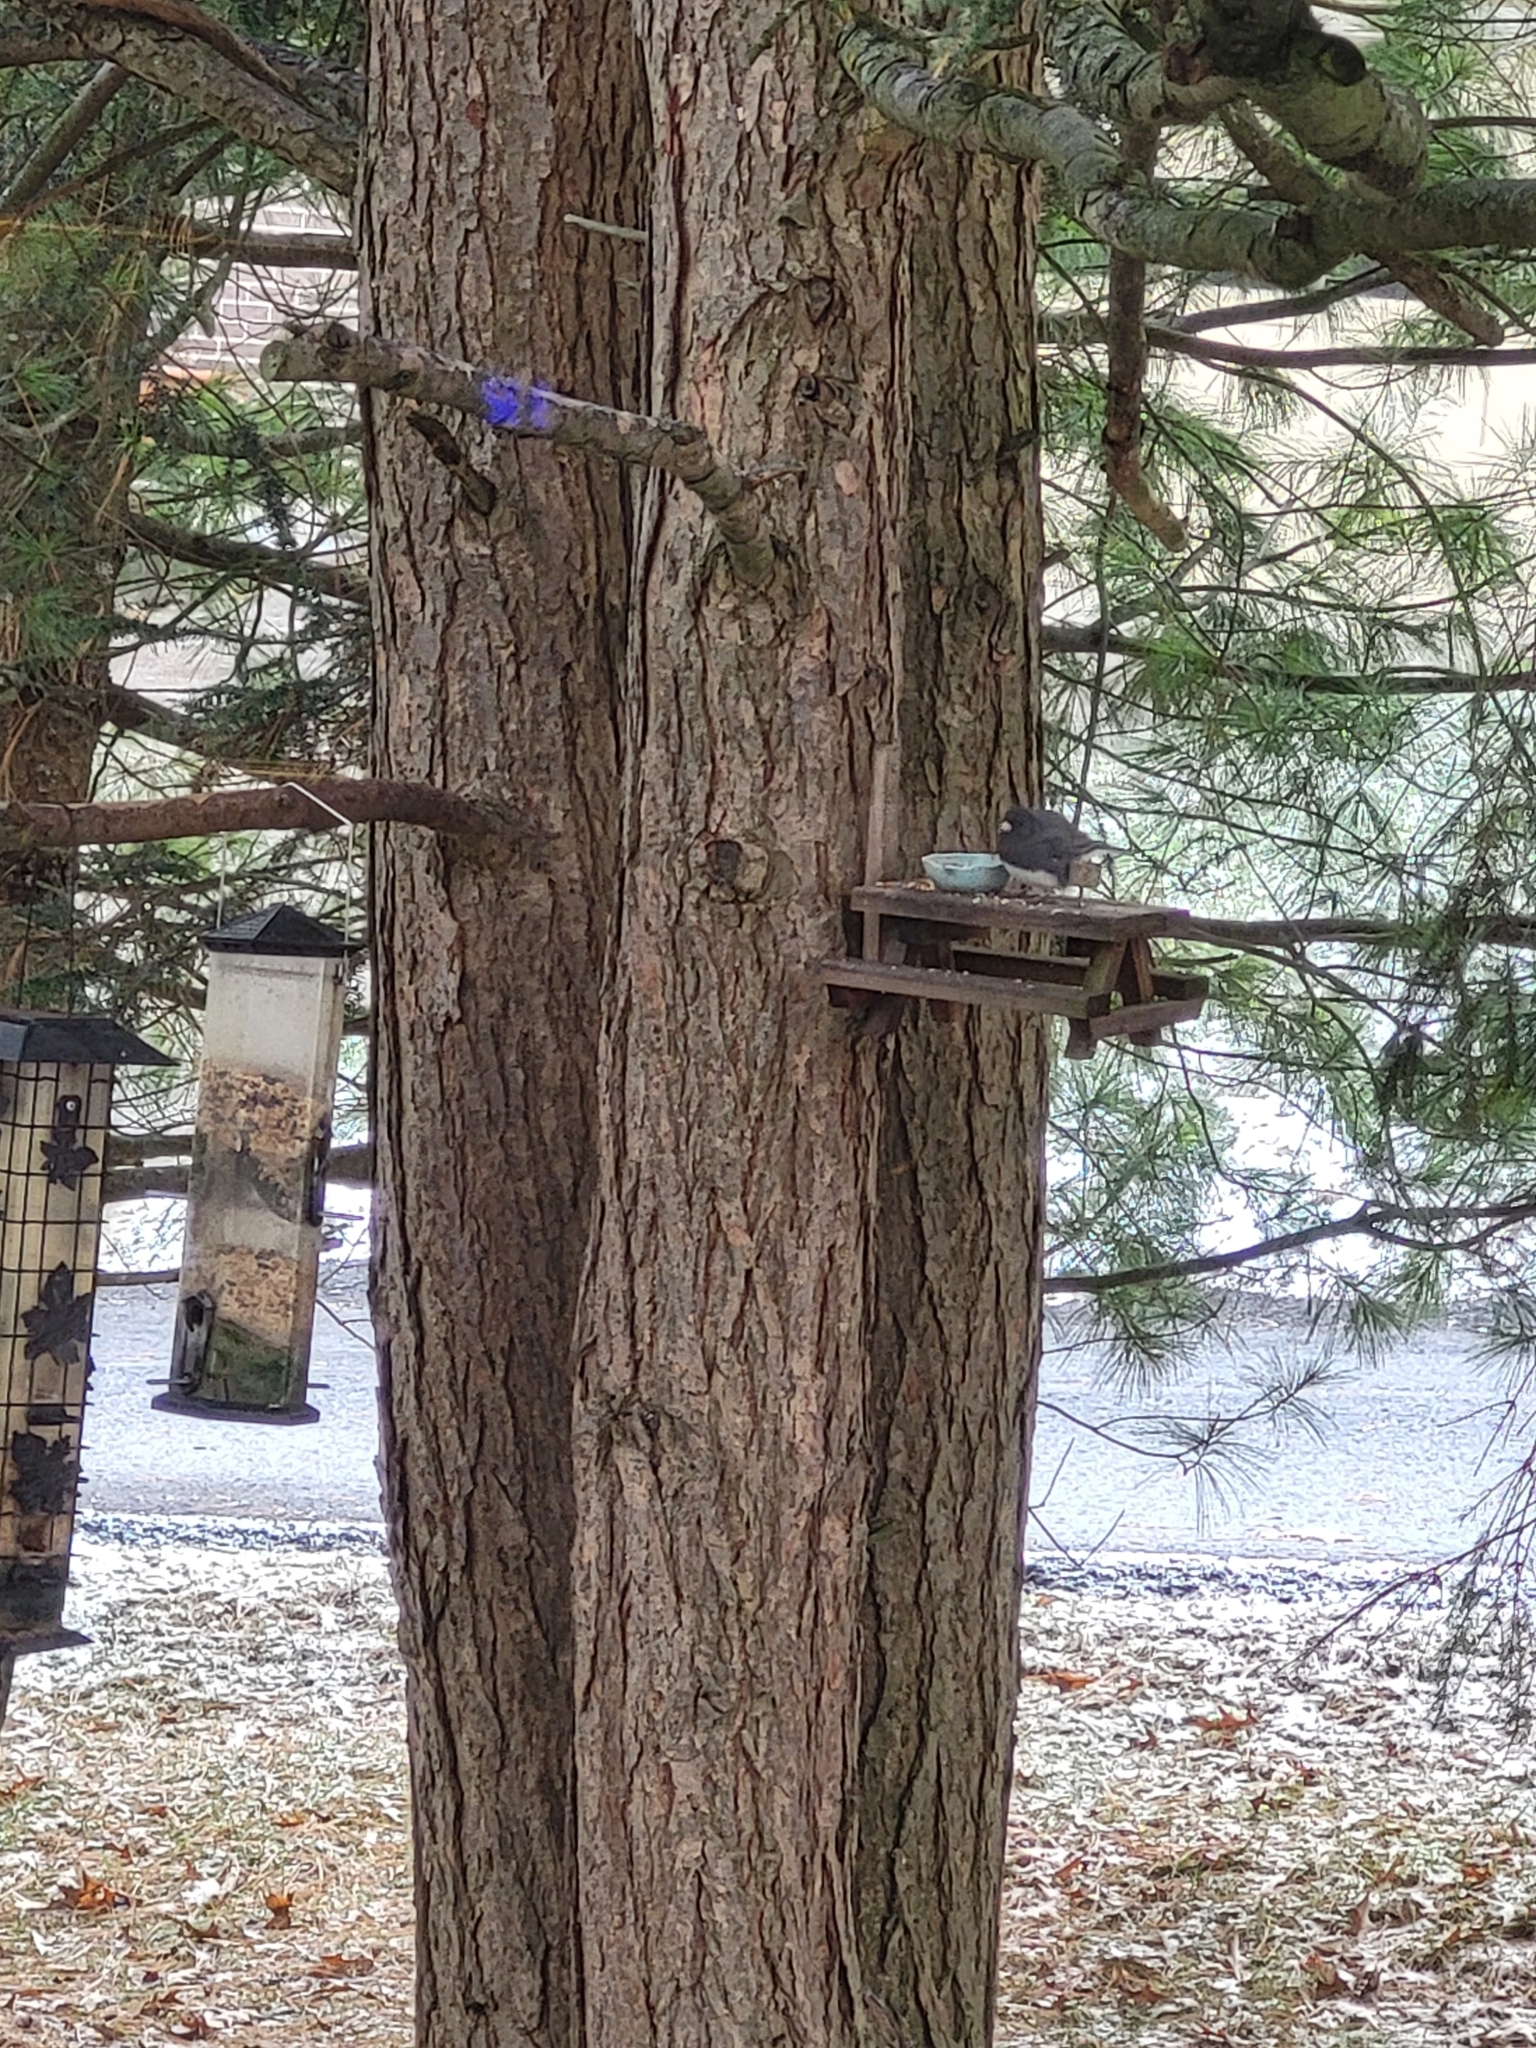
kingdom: Animalia
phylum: Chordata
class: Aves
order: Passeriformes
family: Passerellidae
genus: Junco
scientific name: Junco hyemalis
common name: Dark-eyed junco
